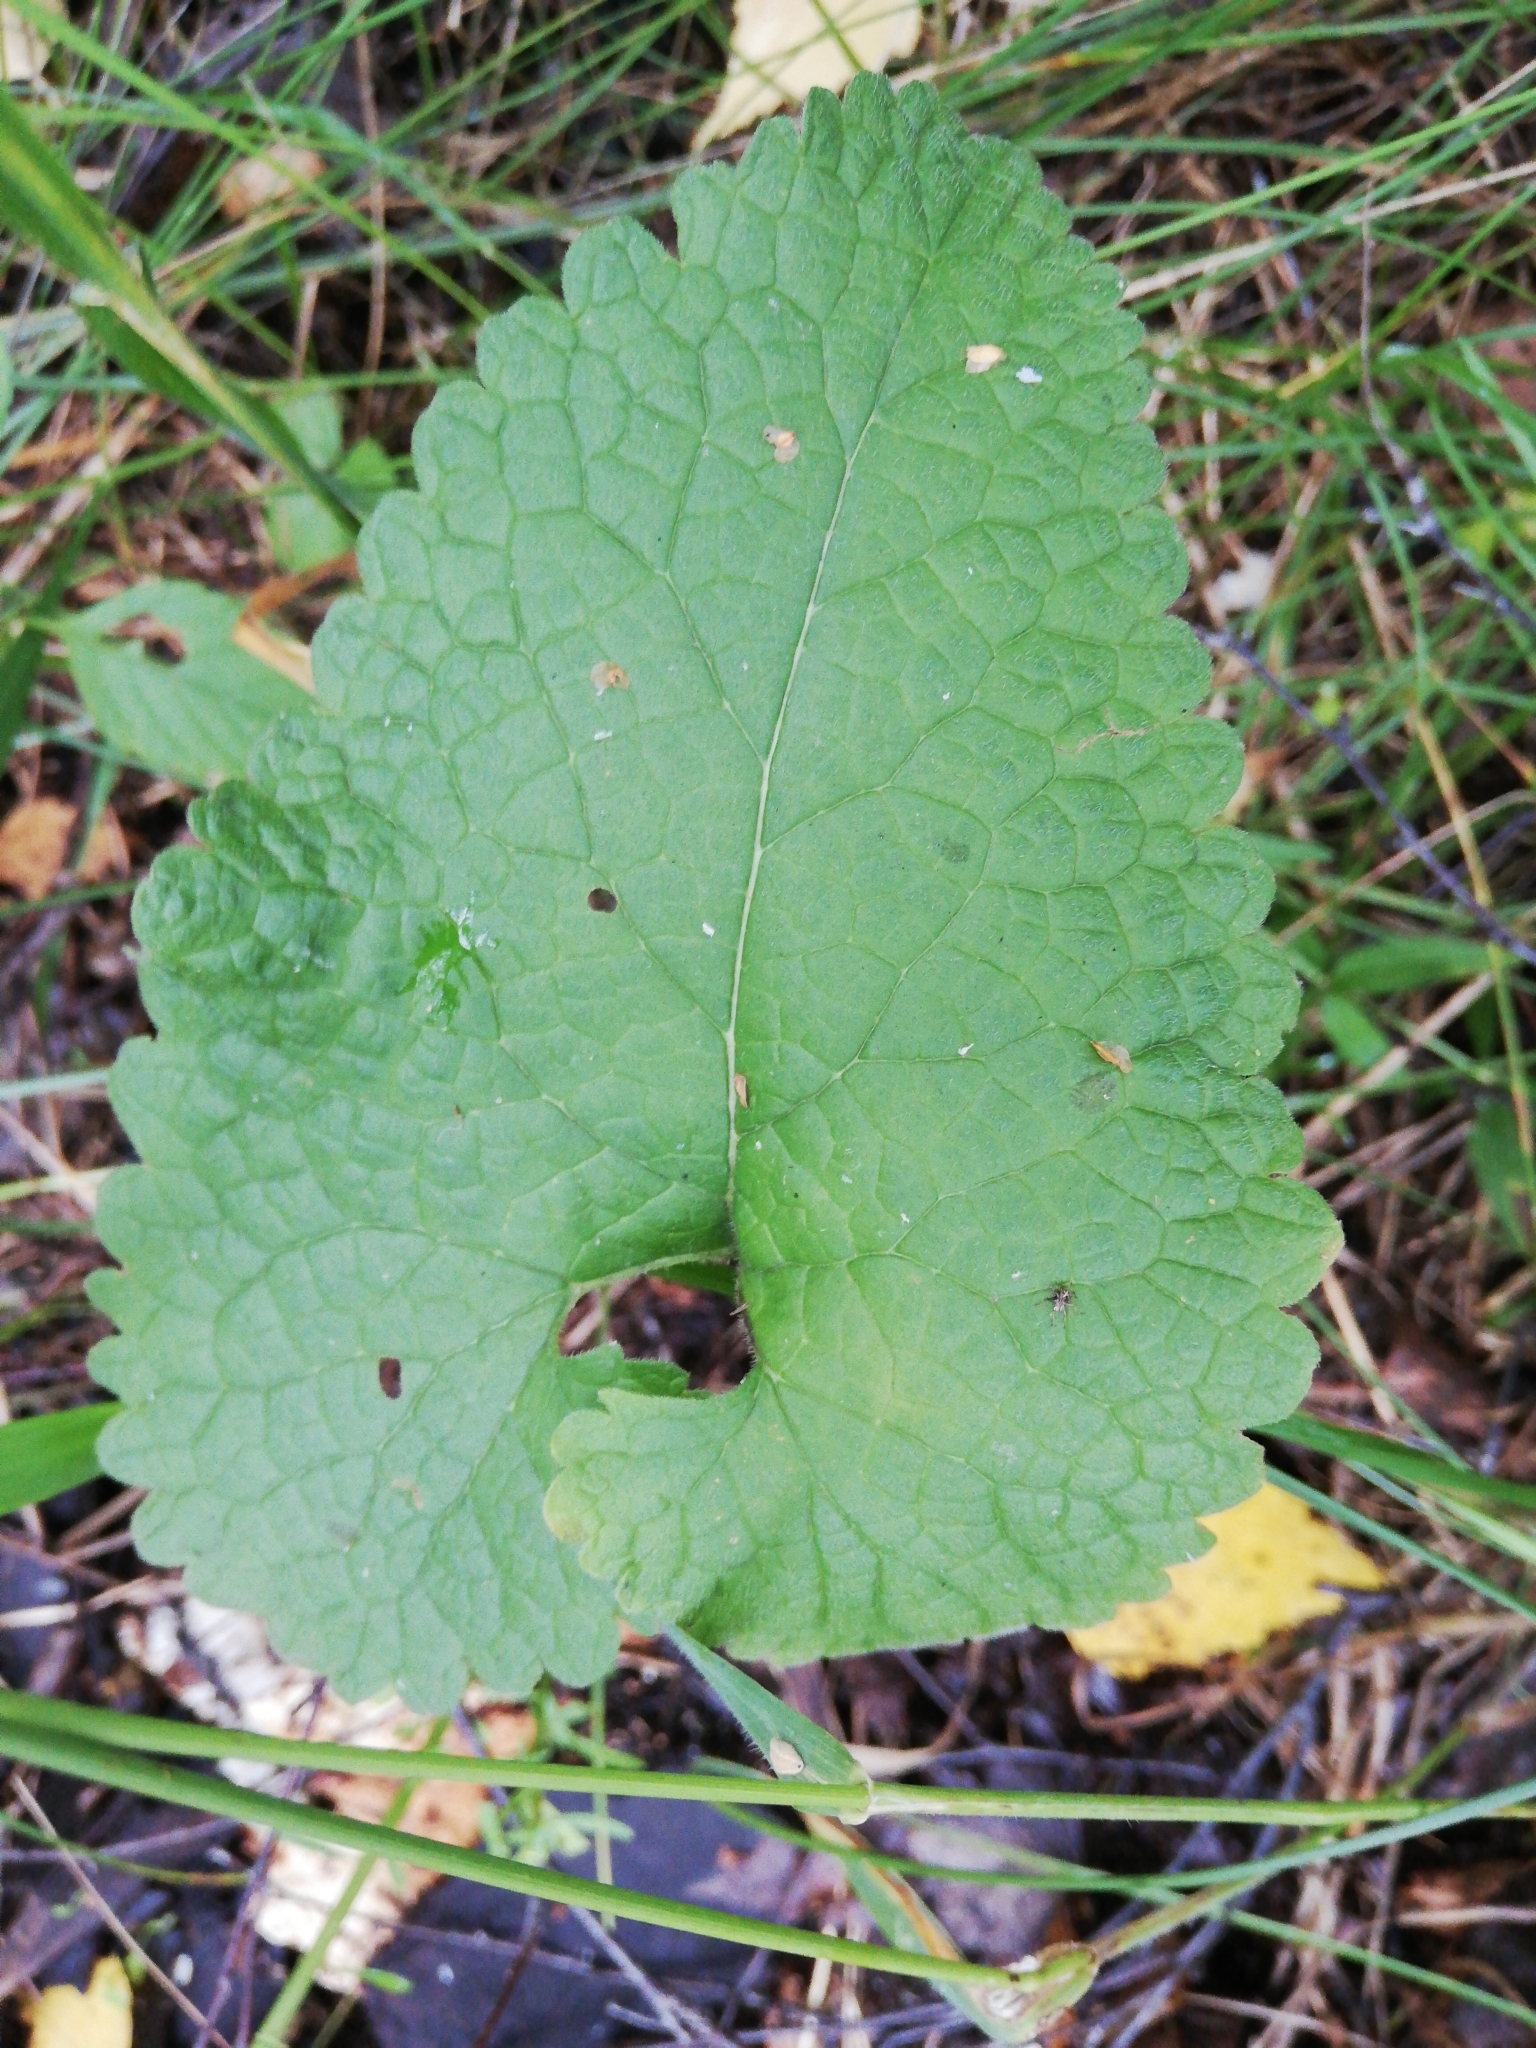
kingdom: Plantae
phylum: Tracheophyta
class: Magnoliopsida
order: Lamiales
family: Lamiaceae
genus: Phlomoides
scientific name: Phlomoides tuberosa
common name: Tuberous jerusalem sage
